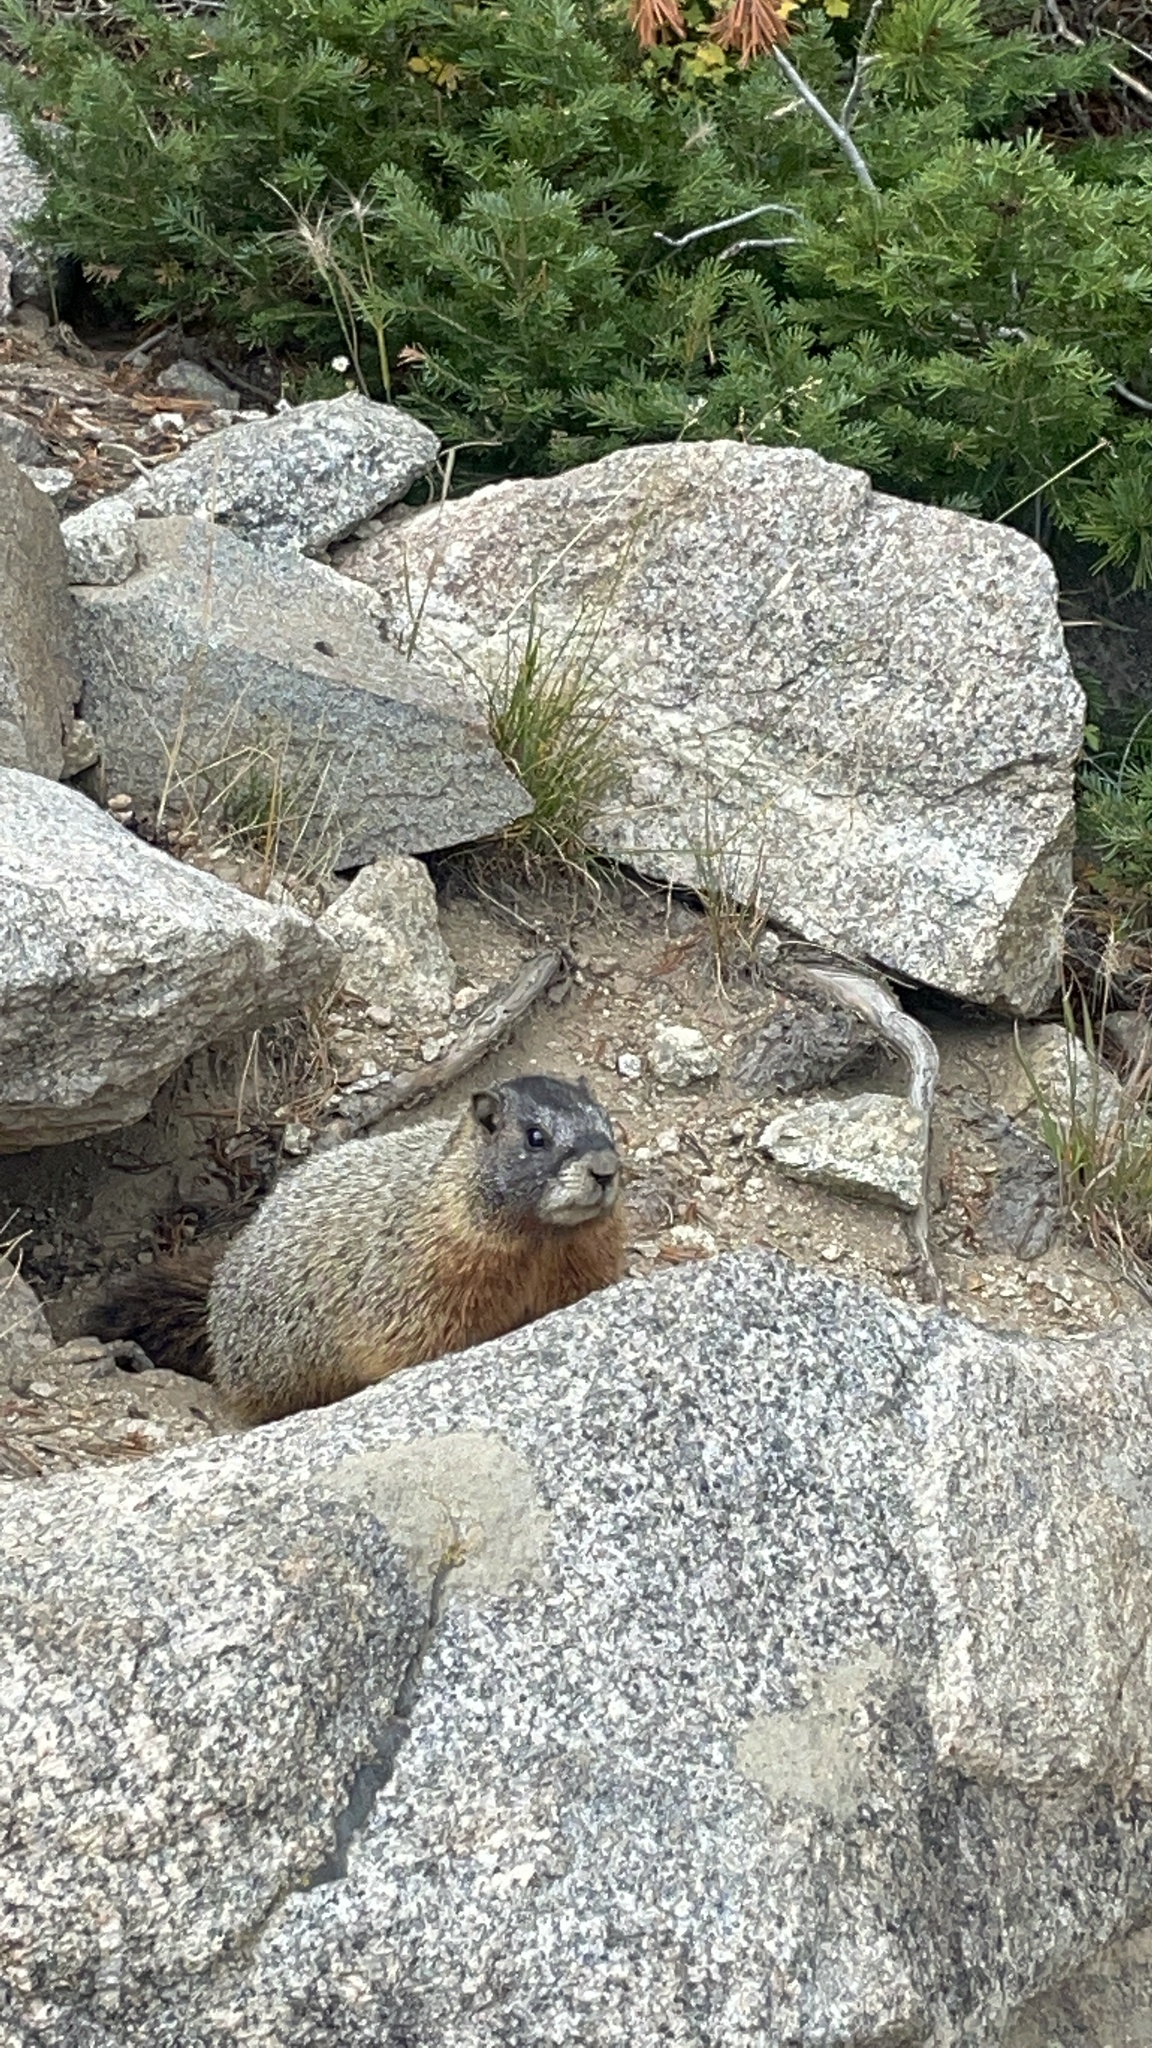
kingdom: Animalia
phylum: Chordata
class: Mammalia
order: Rodentia
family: Sciuridae
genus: Marmota
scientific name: Marmota flaviventris
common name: Yellow-bellied marmot
